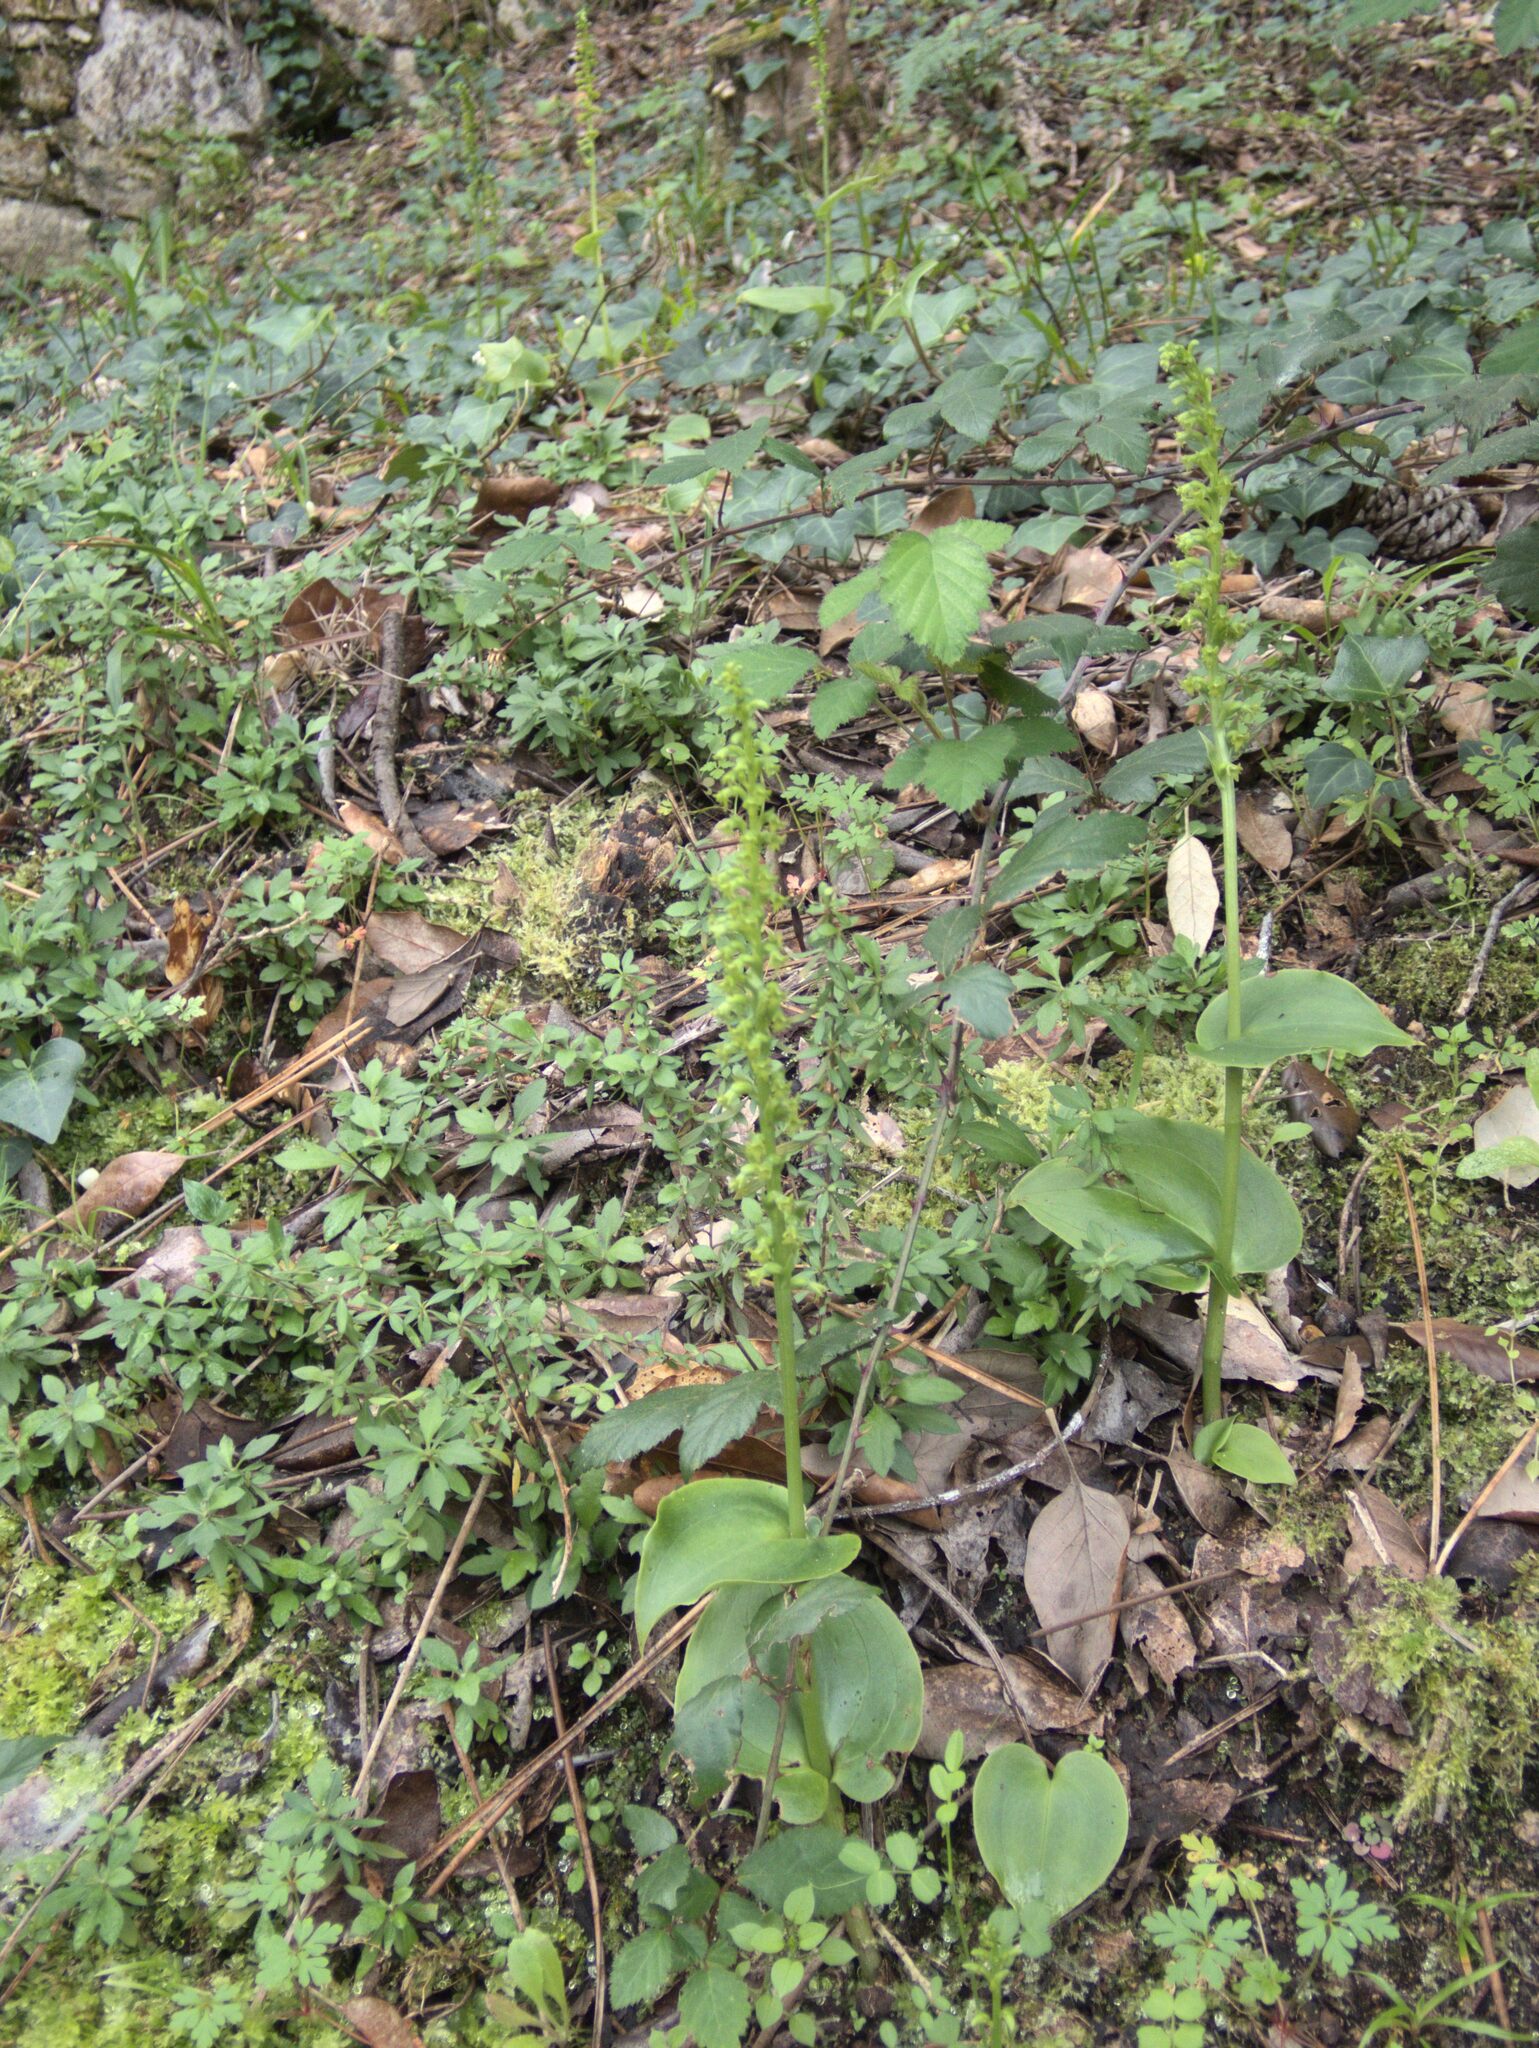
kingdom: Plantae
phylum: Tracheophyta
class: Liliopsida
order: Asparagales
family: Orchidaceae
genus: Gennaria
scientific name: Gennaria diphylla
